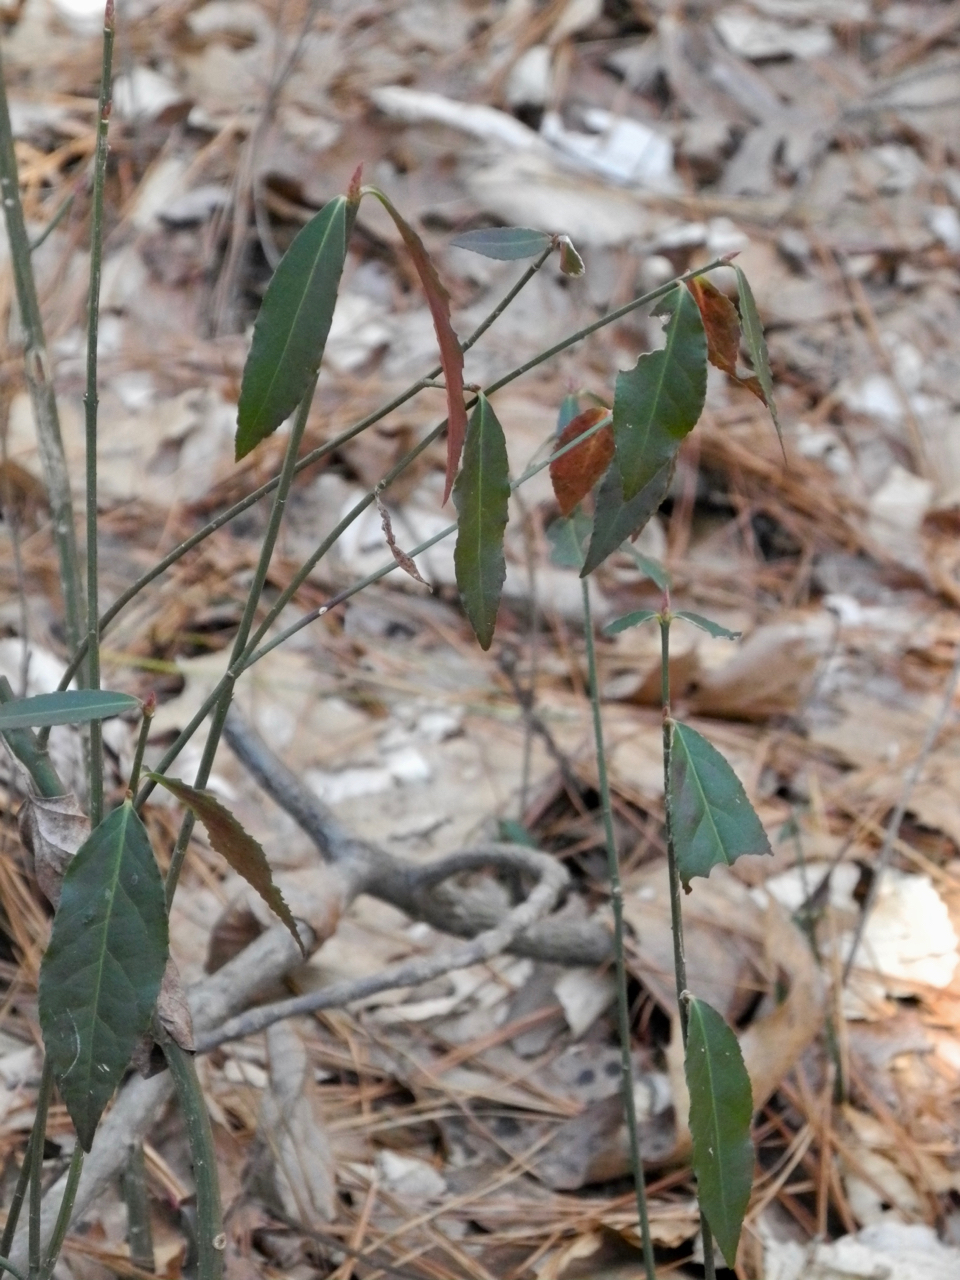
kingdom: Plantae
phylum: Tracheophyta
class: Magnoliopsida
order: Celastrales
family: Celastraceae
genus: Euonymus
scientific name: Euonymus americanus
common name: Bursting-heart
